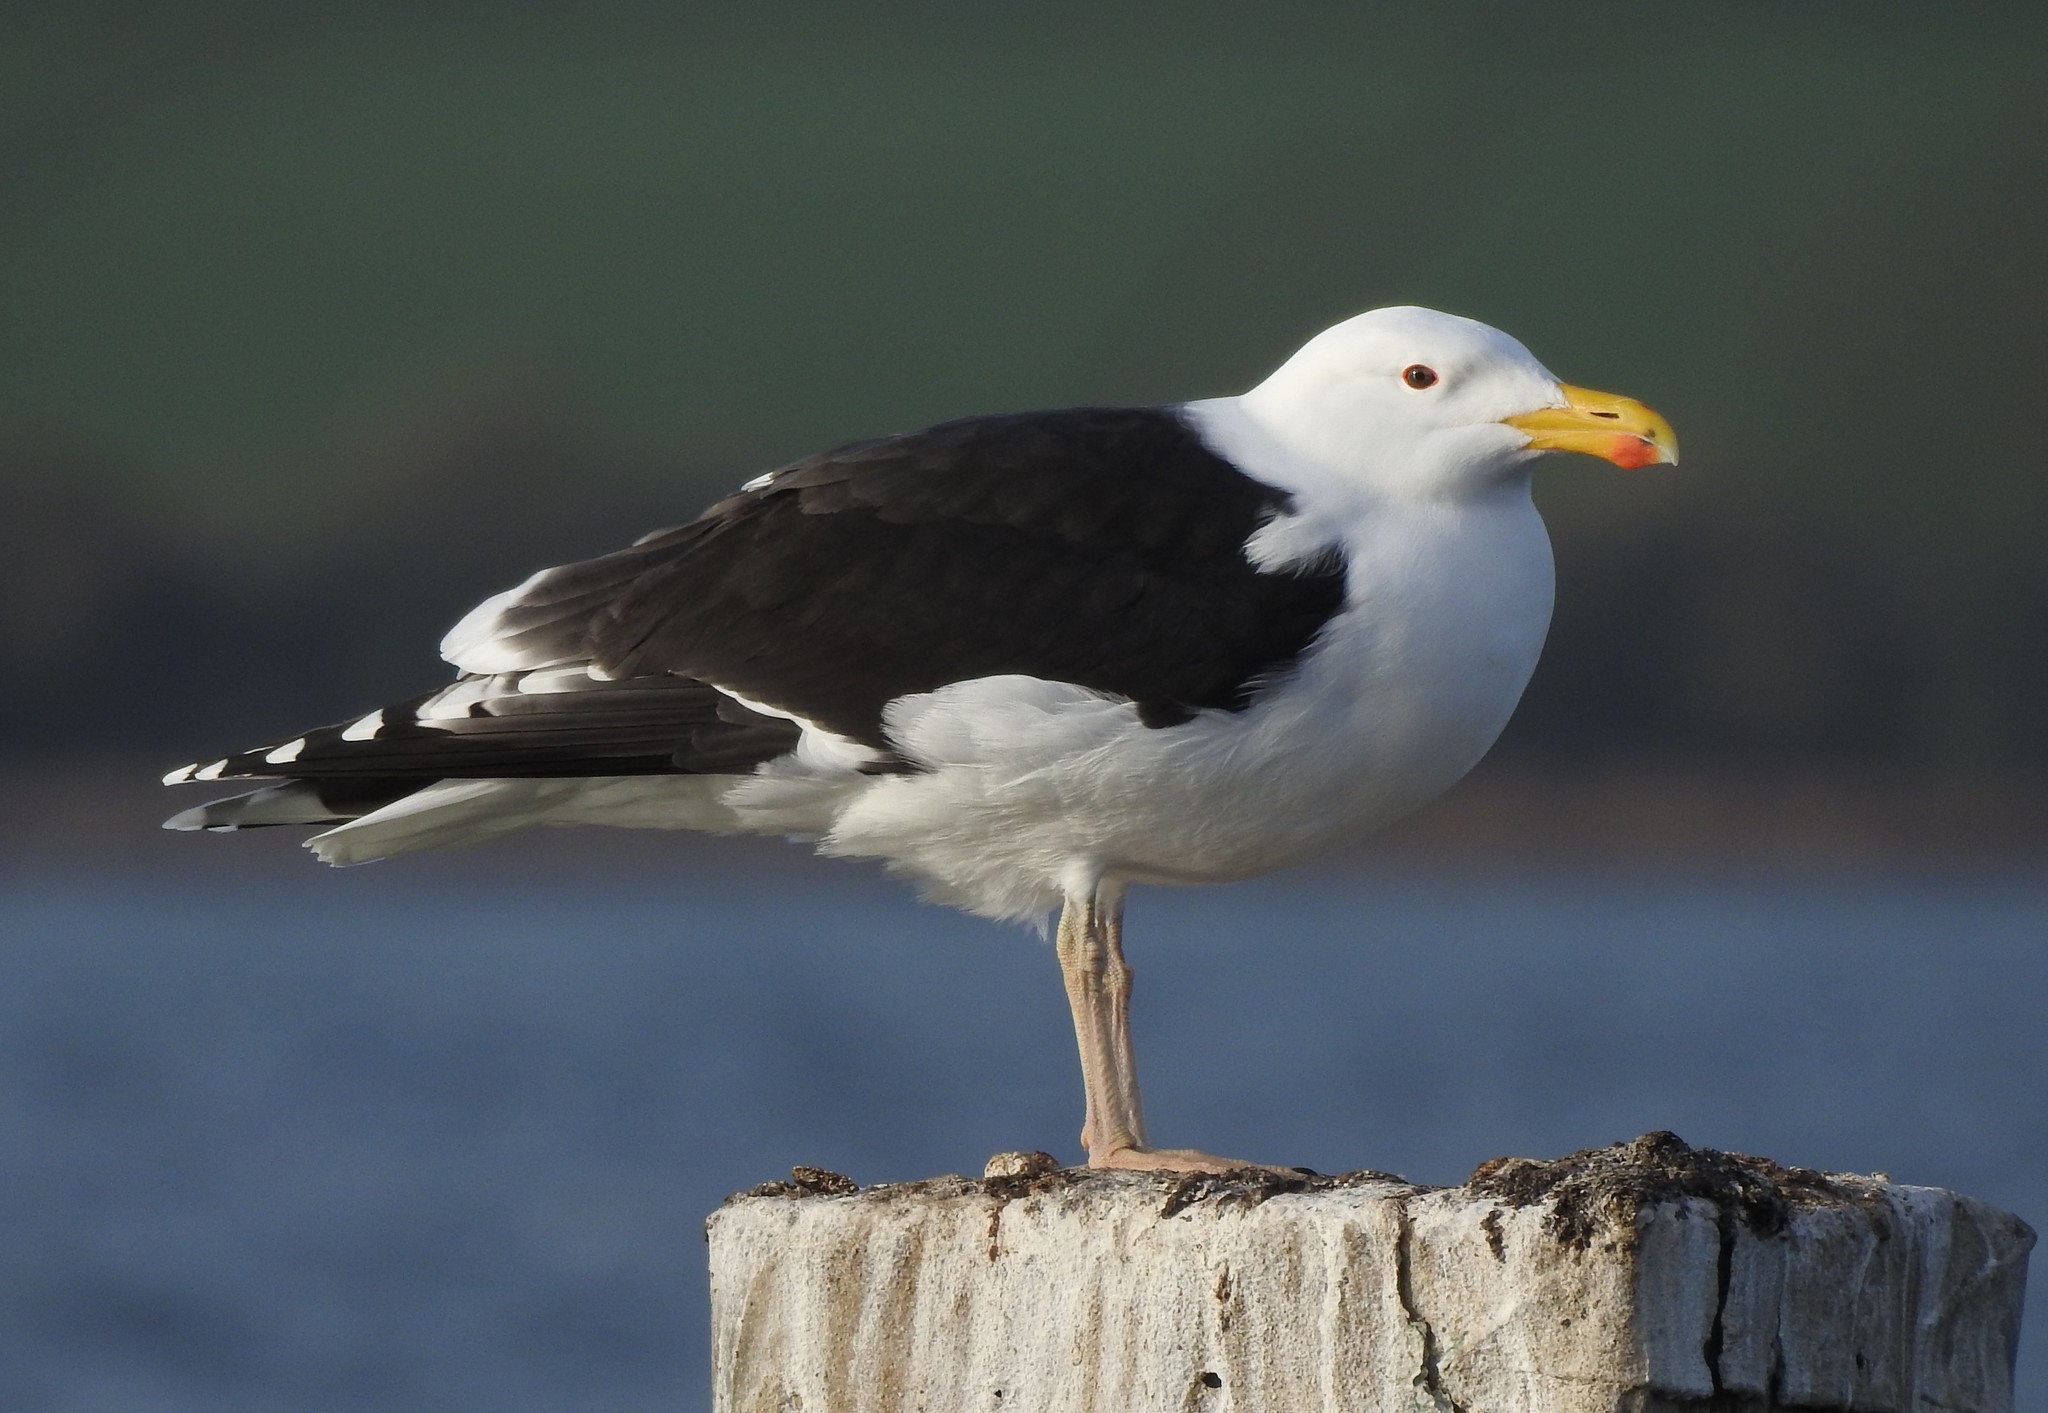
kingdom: Animalia
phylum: Chordata
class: Aves
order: Charadriiformes
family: Laridae
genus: Larus
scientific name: Larus marinus
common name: Great black-backed gull
